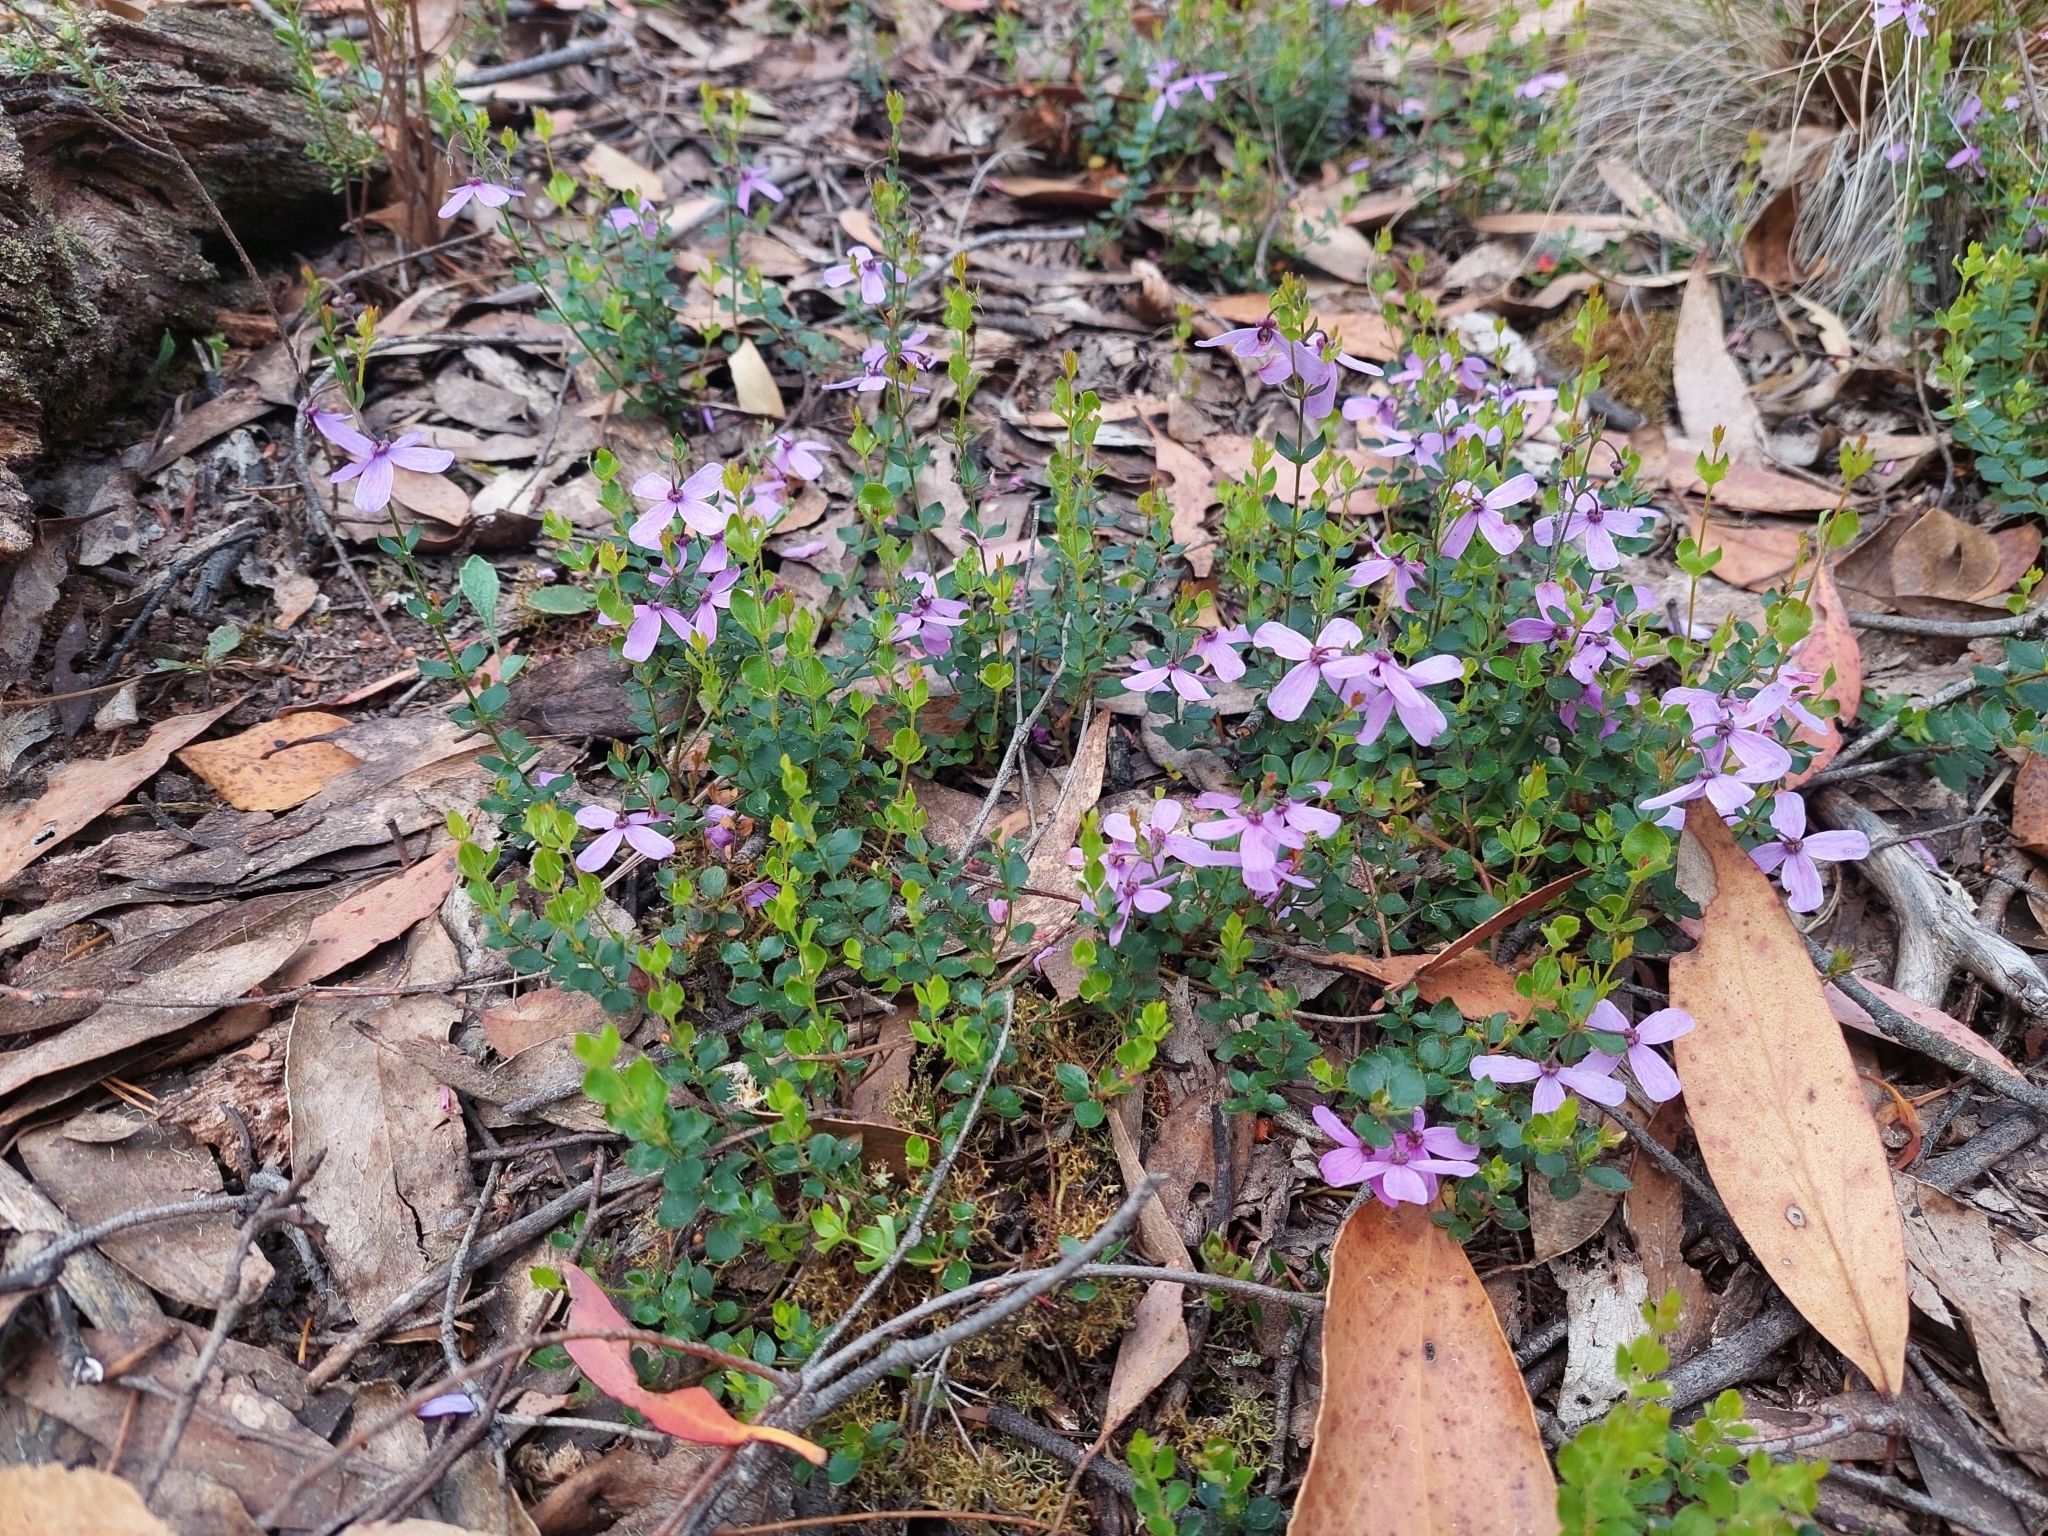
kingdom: Plantae
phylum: Tracheophyta
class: Magnoliopsida
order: Oxalidales
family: Elaeocarpaceae
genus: Tetratheca
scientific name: Tetratheca ciliata
